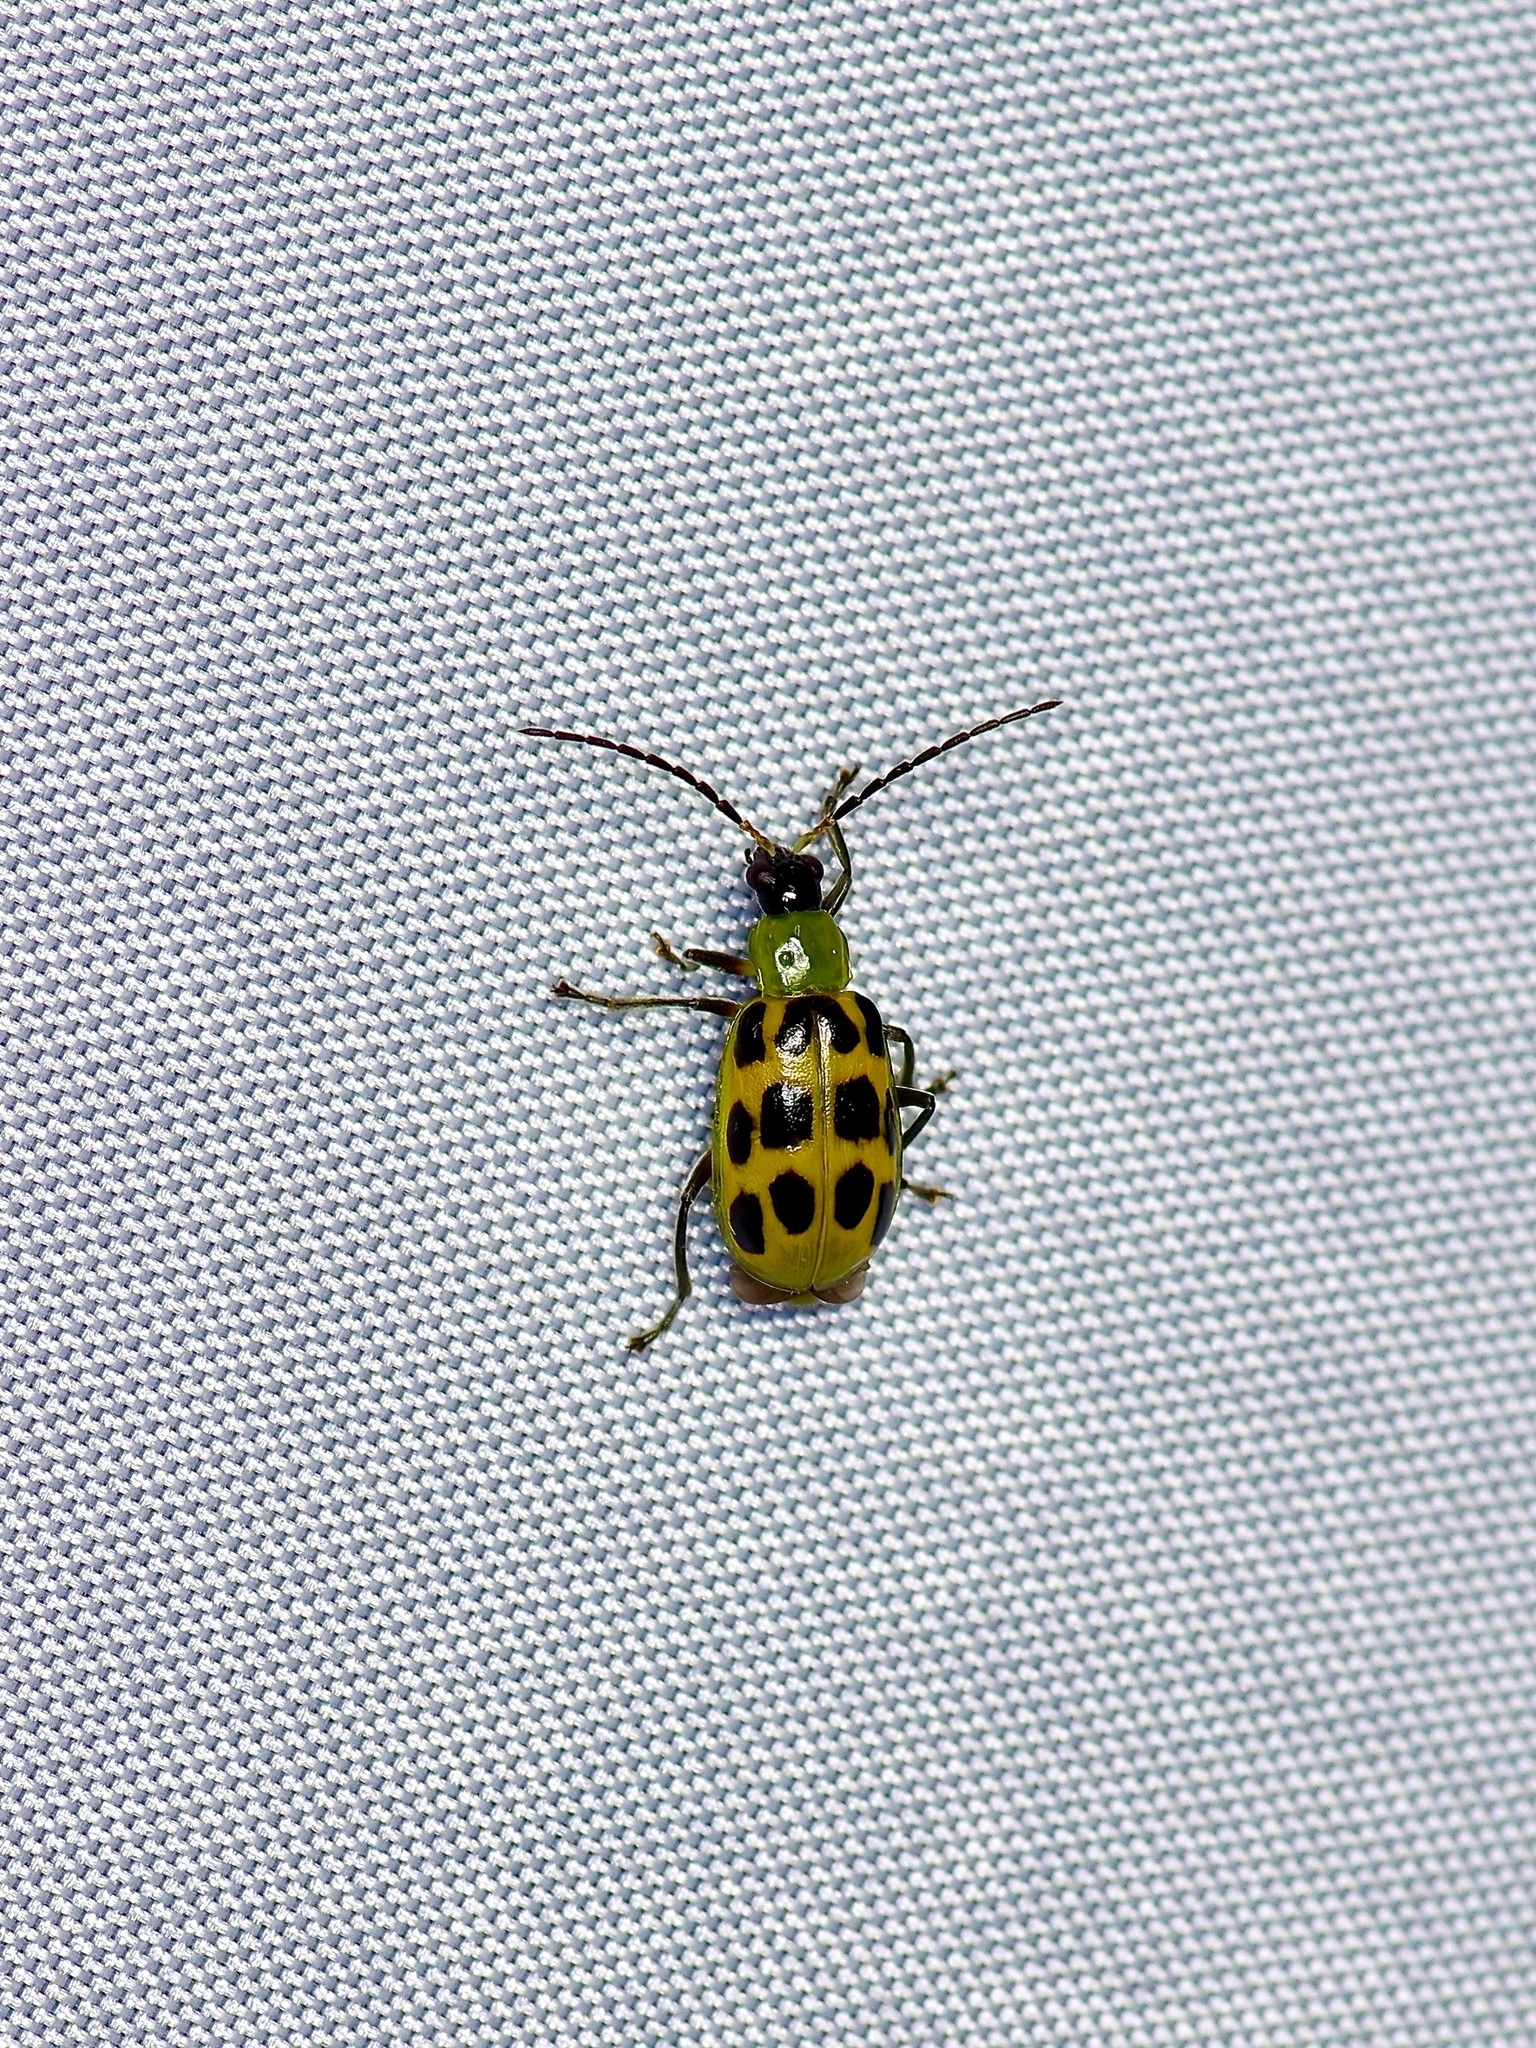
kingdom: Animalia
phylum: Arthropoda
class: Insecta
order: Coleoptera
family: Chrysomelidae
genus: Diabrotica
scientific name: Diabrotica undecimpunctata
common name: Spotted cucumber beetle
